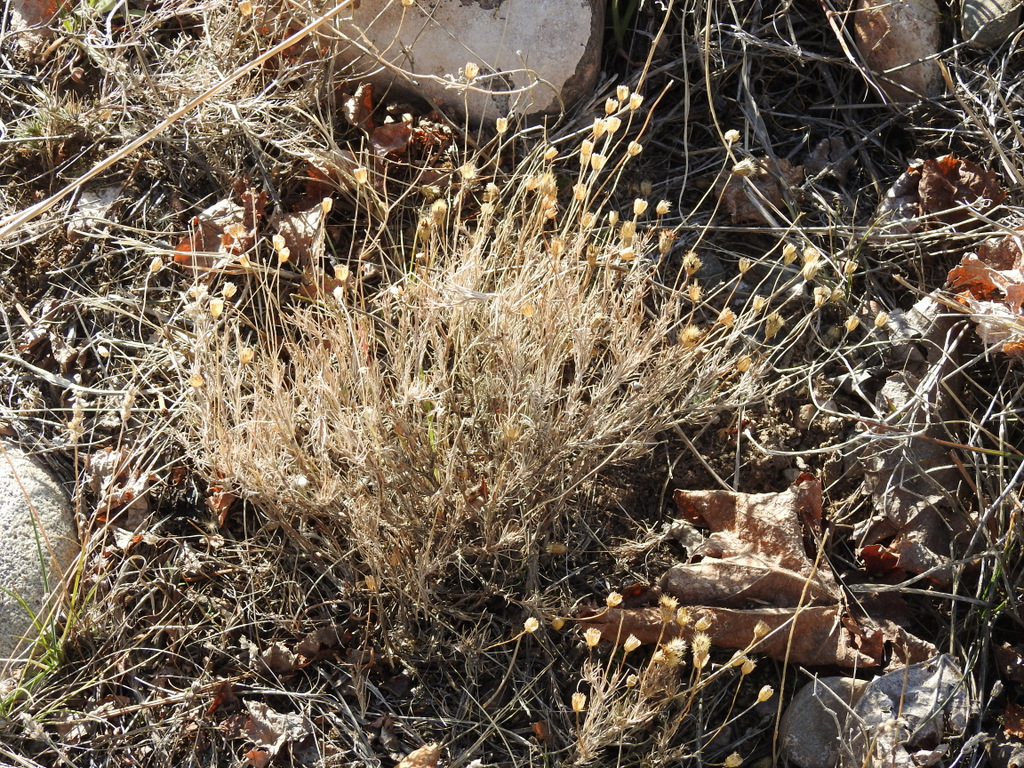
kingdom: Plantae
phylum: Tracheophyta
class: Magnoliopsida
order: Asterales
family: Asteraceae
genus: Thymophylla
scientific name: Thymophylla pentachaeta
